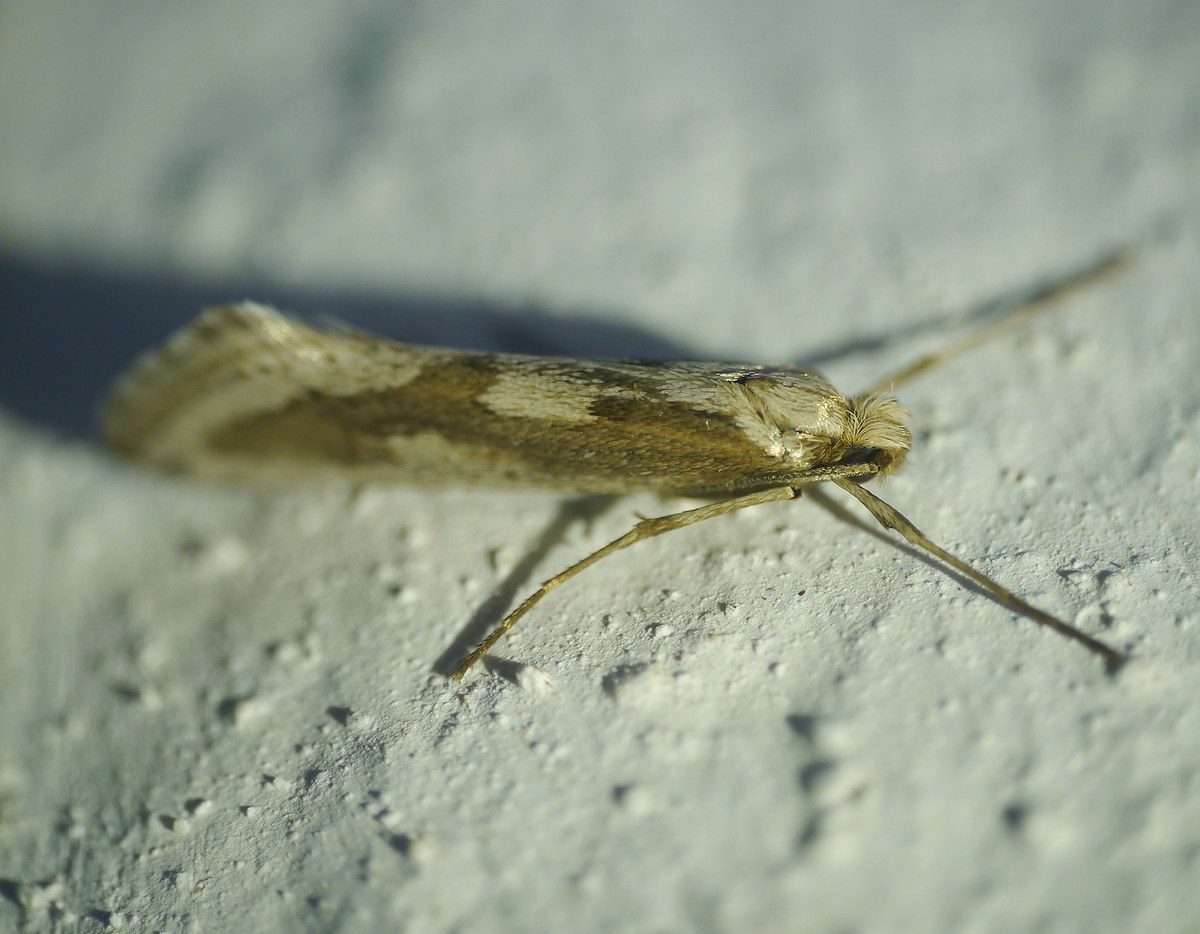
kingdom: Animalia
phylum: Arthropoda
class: Insecta
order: Lepidoptera
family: Eriocottidae
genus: Deuterotinea
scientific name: Deuterotinea casanella
